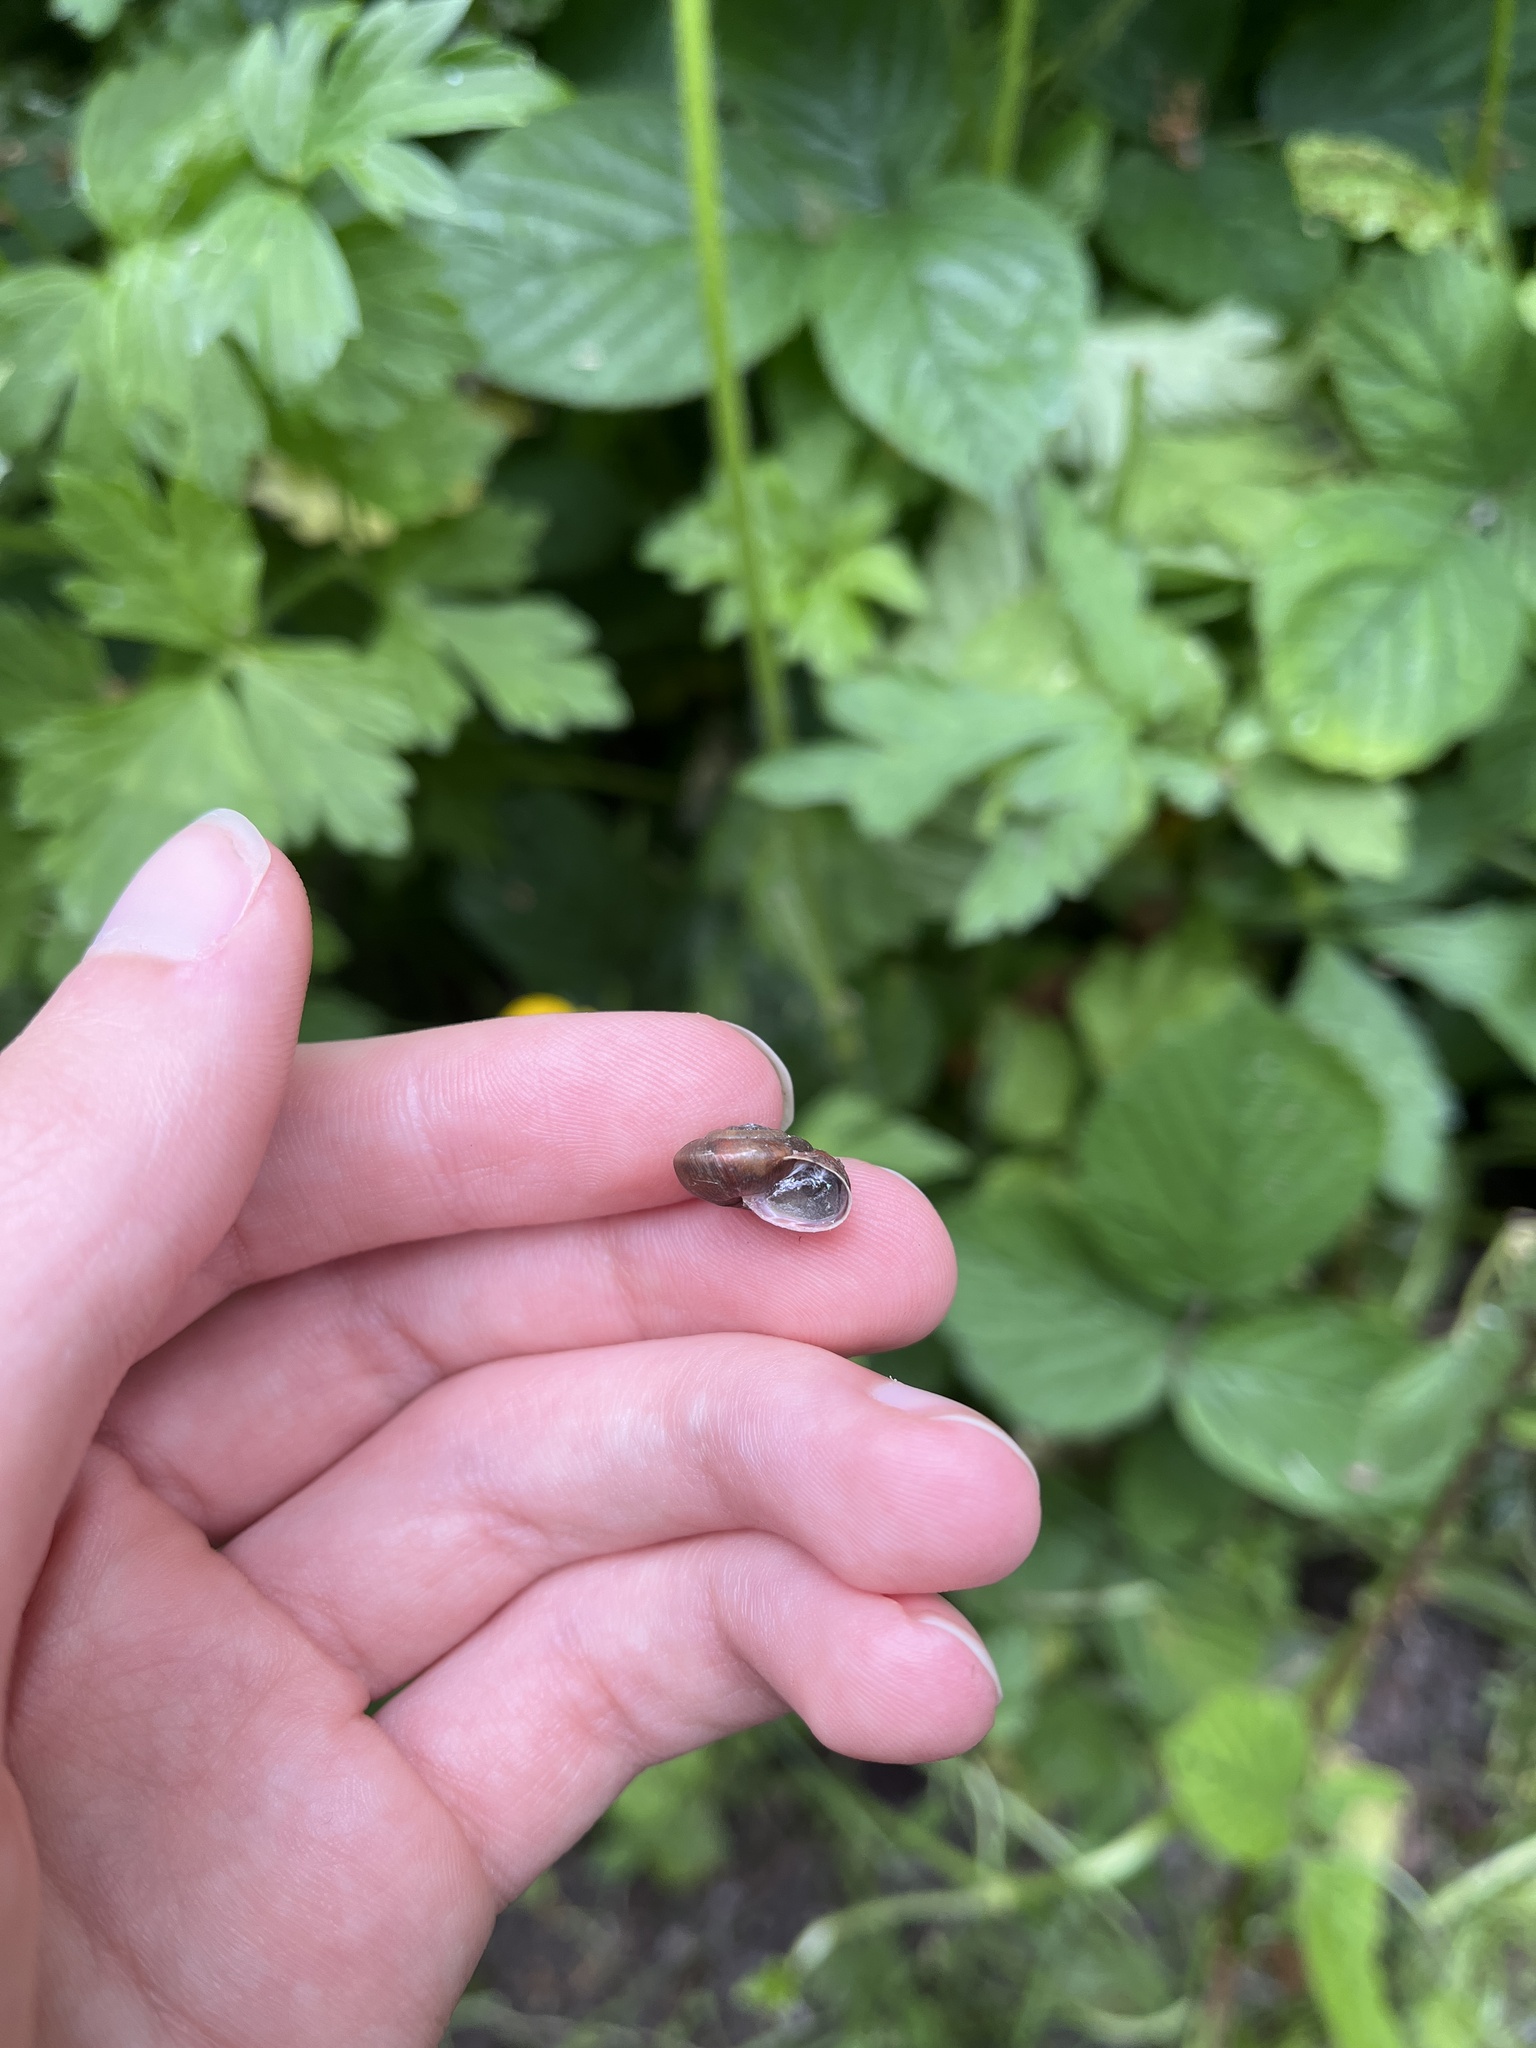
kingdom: Animalia
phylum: Mollusca
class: Gastropoda
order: Stylommatophora
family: Hygromiidae
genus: Trochulus
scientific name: Trochulus striolatus
